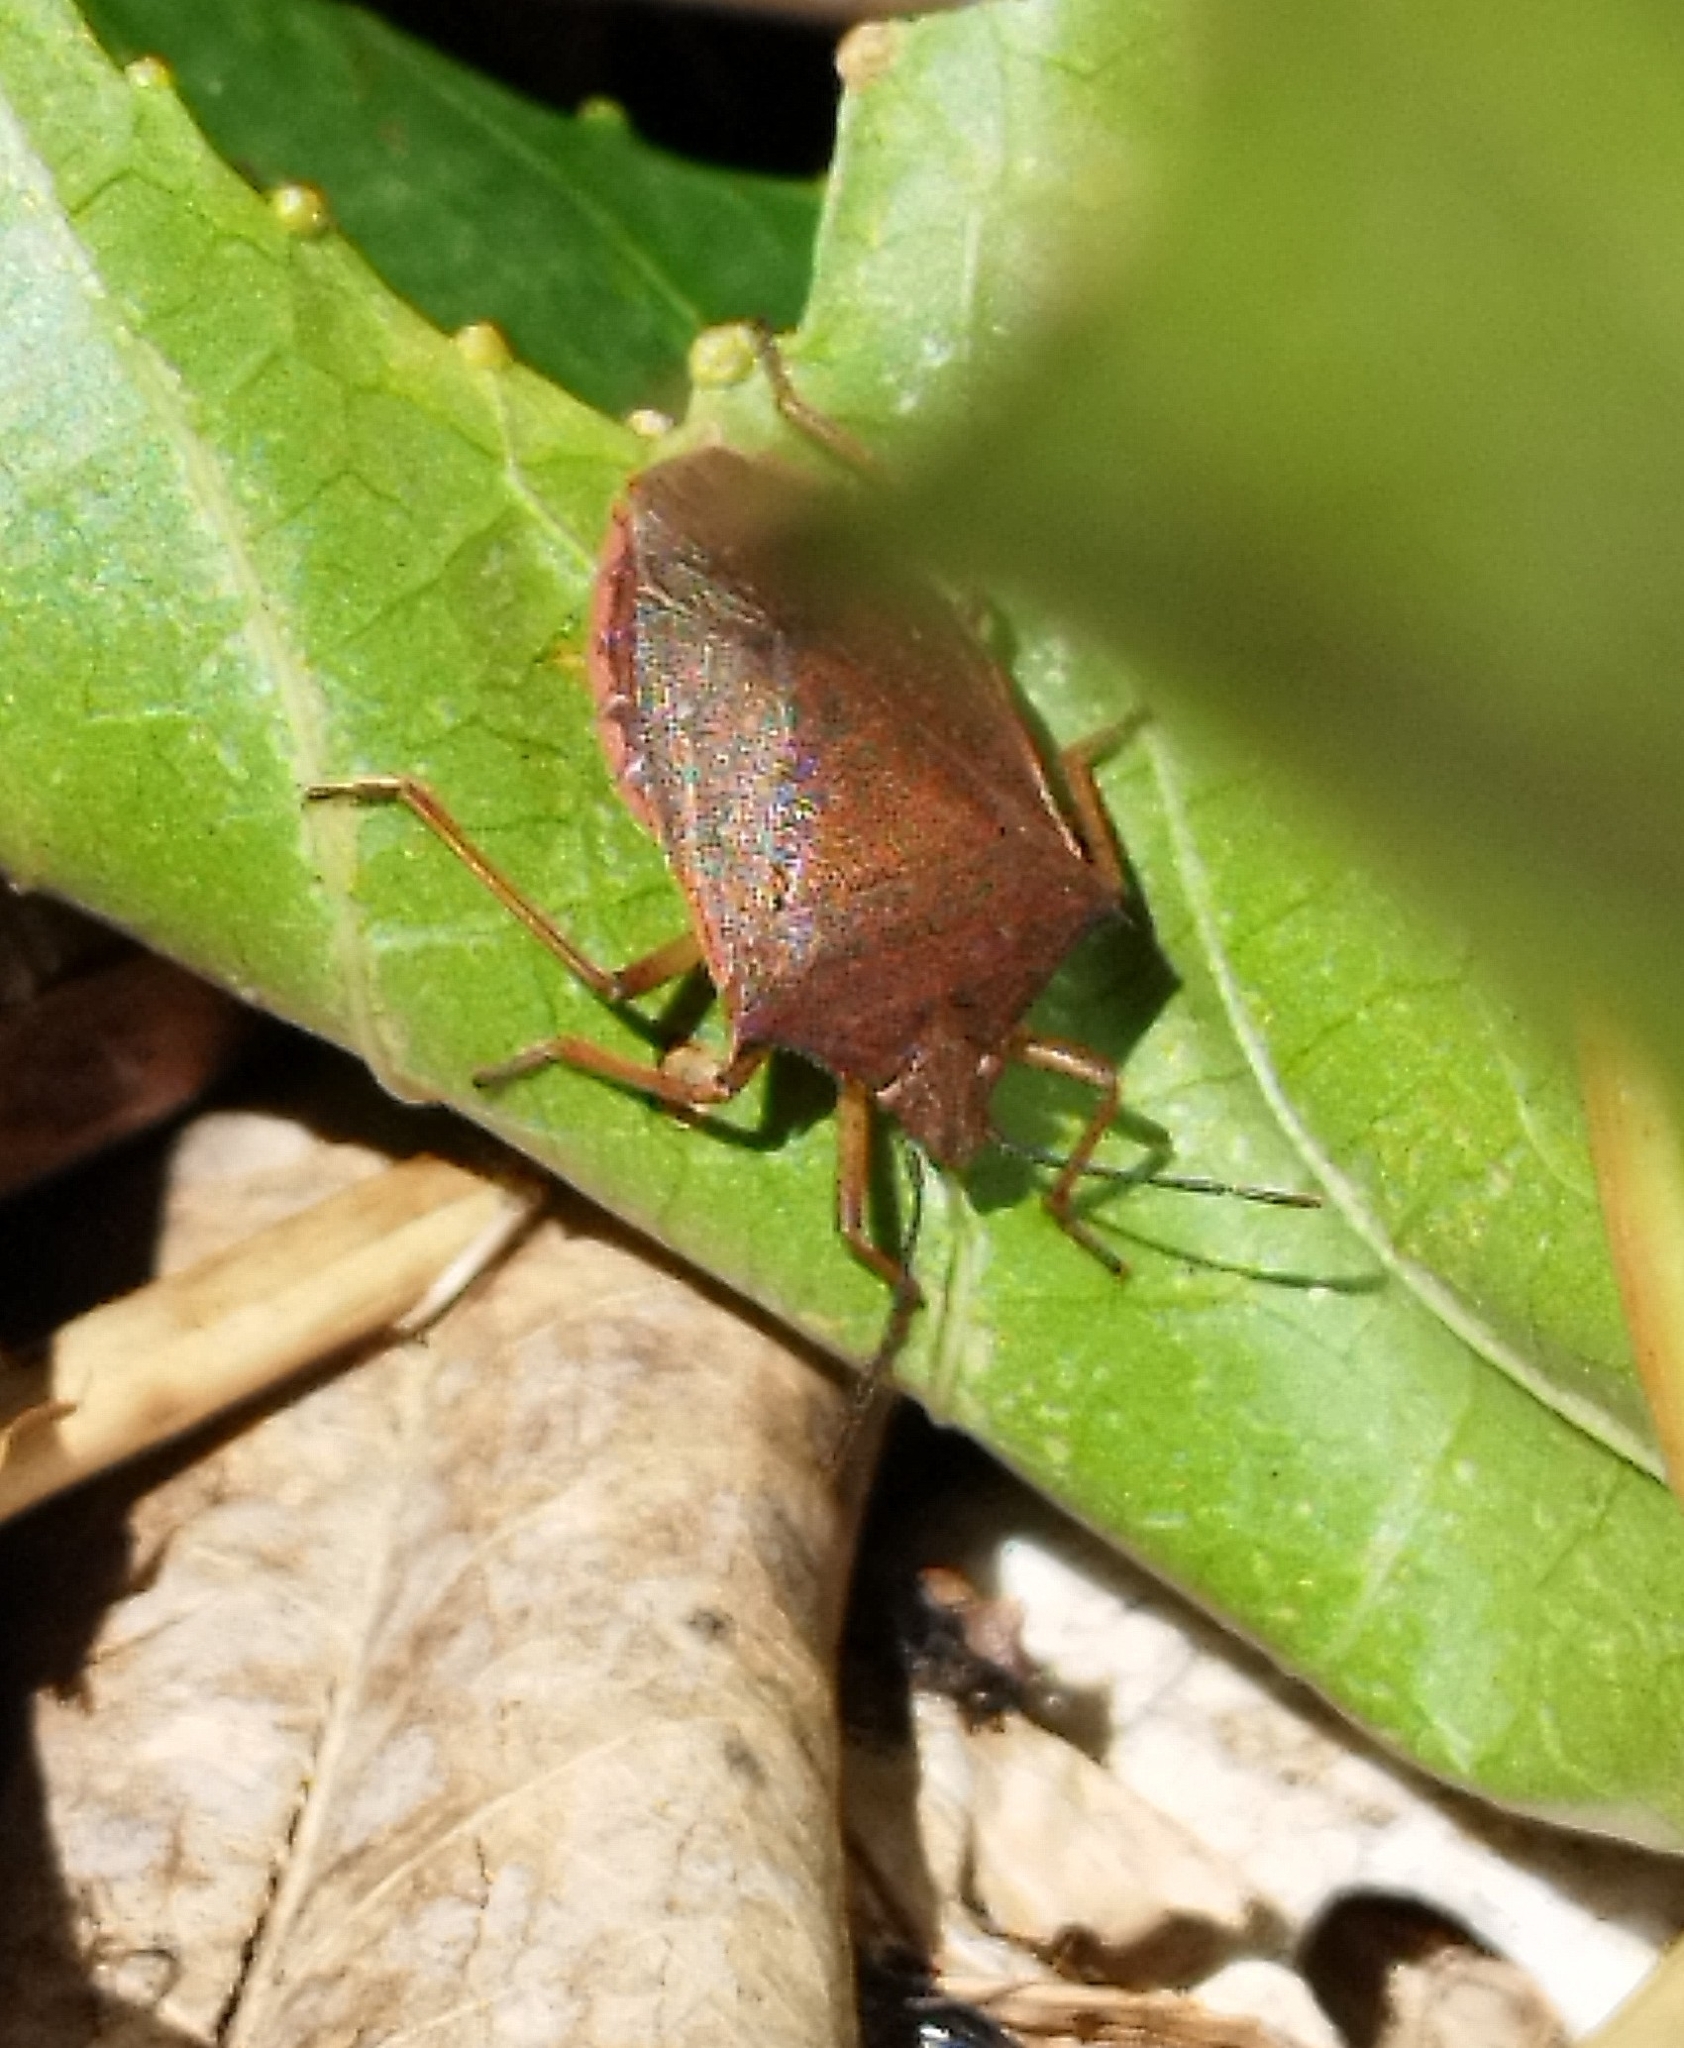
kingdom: Animalia
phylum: Arthropoda
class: Insecta
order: Hemiptera
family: Pentatomidae
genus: Euschistus
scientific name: Euschistus
